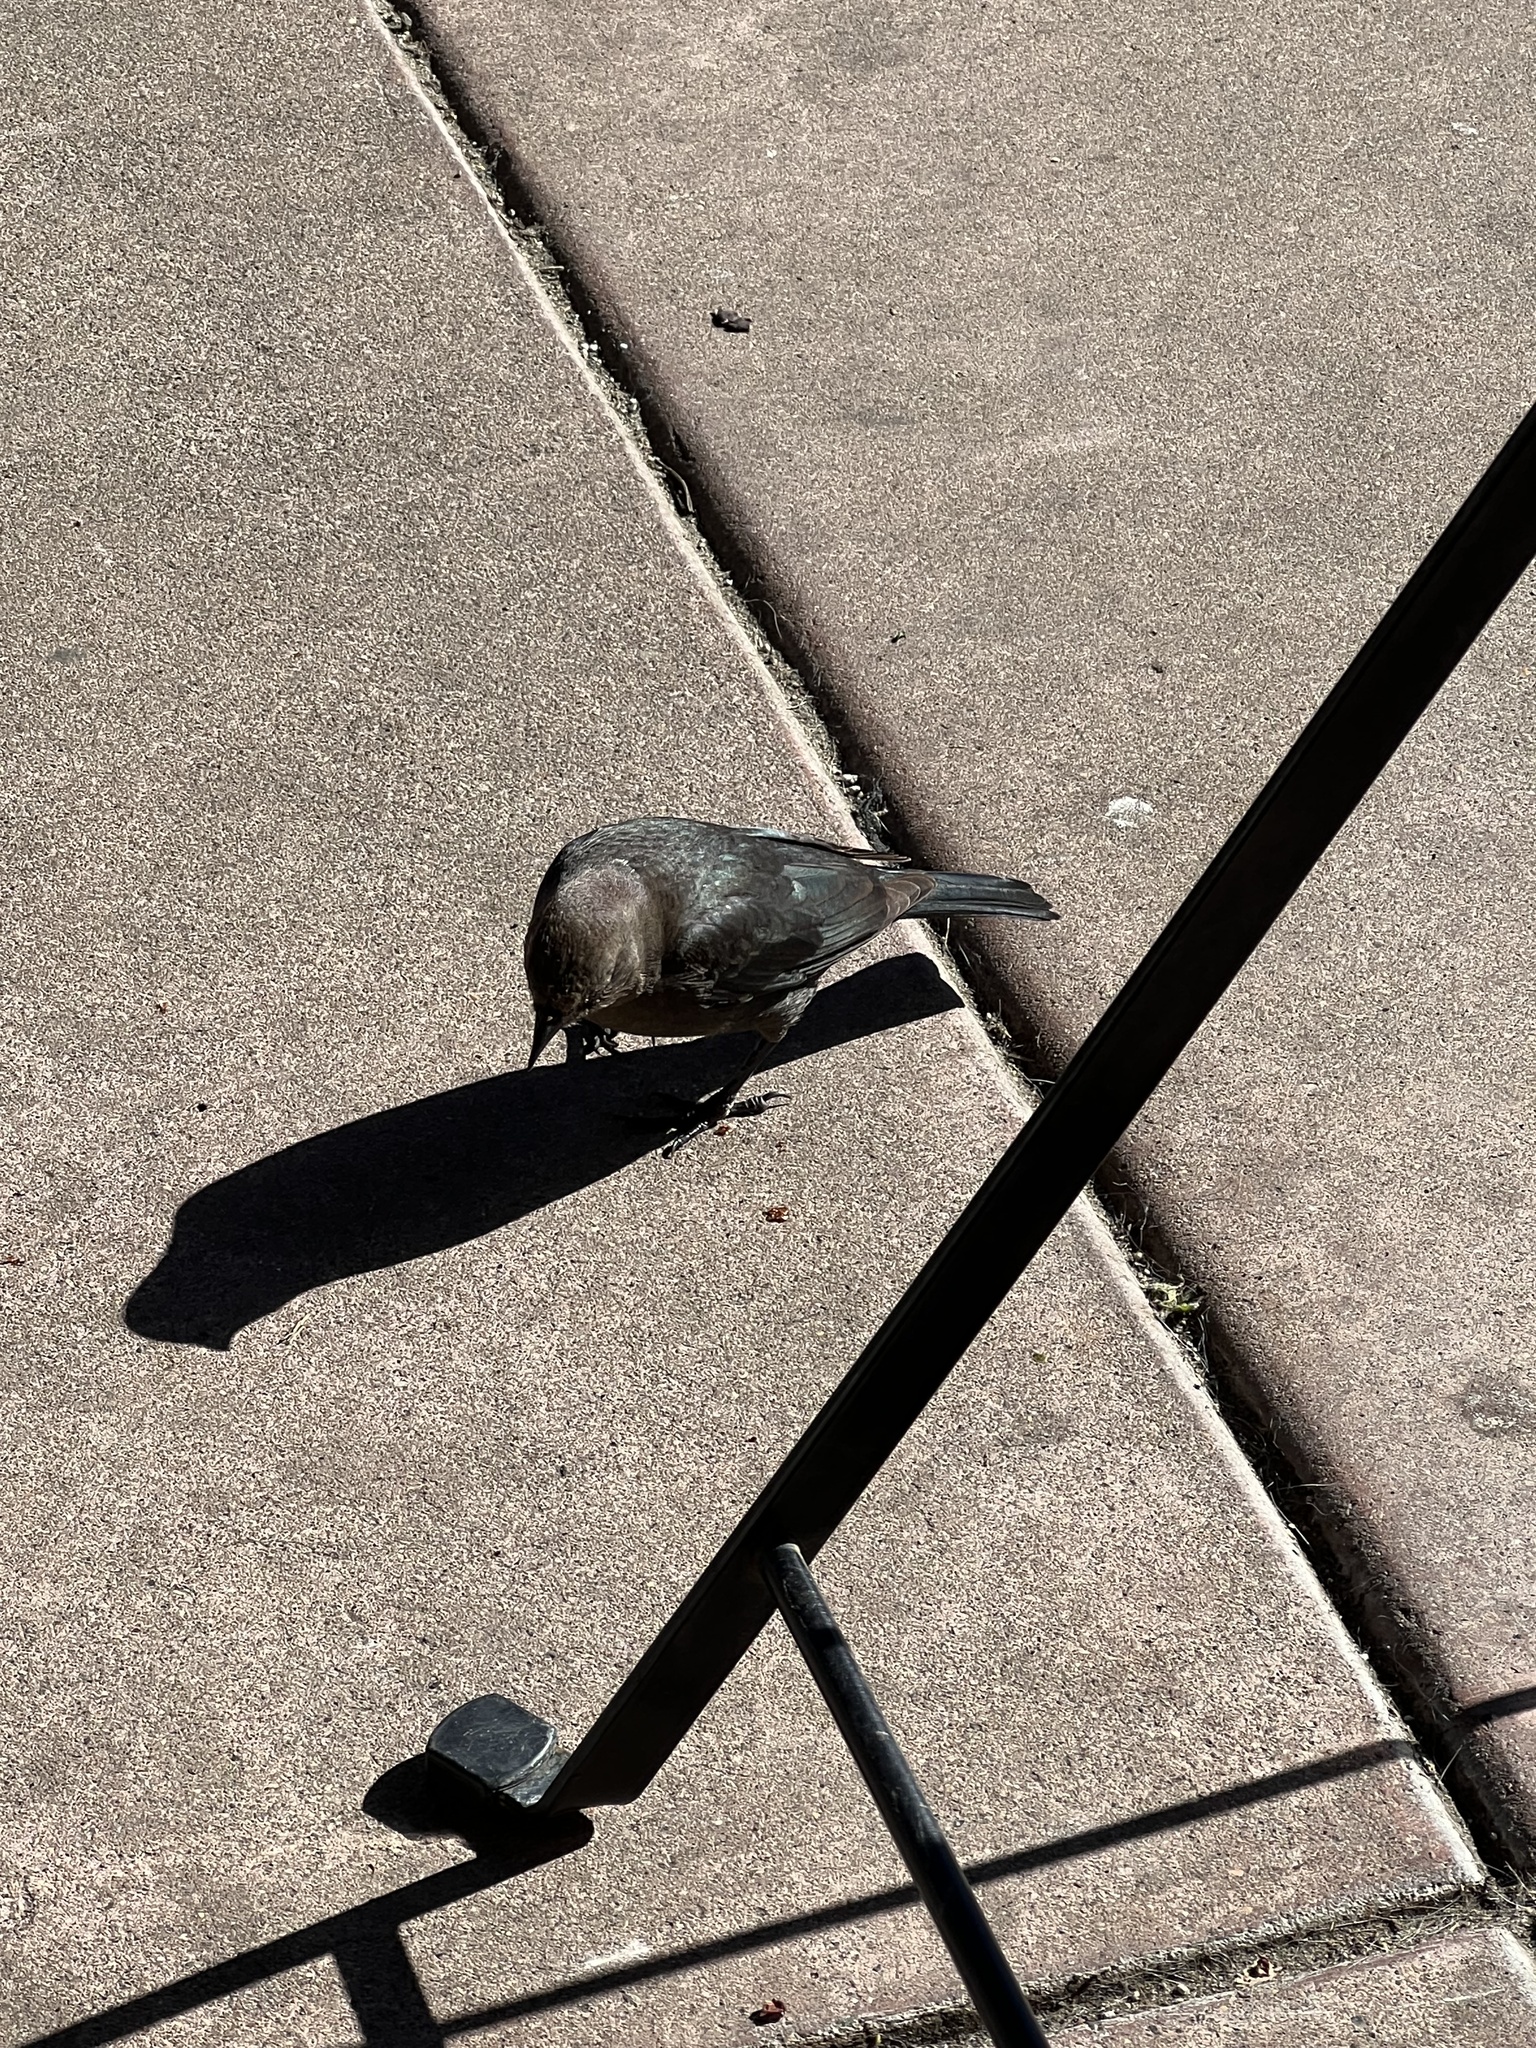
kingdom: Animalia
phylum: Chordata
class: Aves
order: Passeriformes
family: Icteridae
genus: Euphagus
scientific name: Euphagus cyanocephalus
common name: Brewer's blackbird
